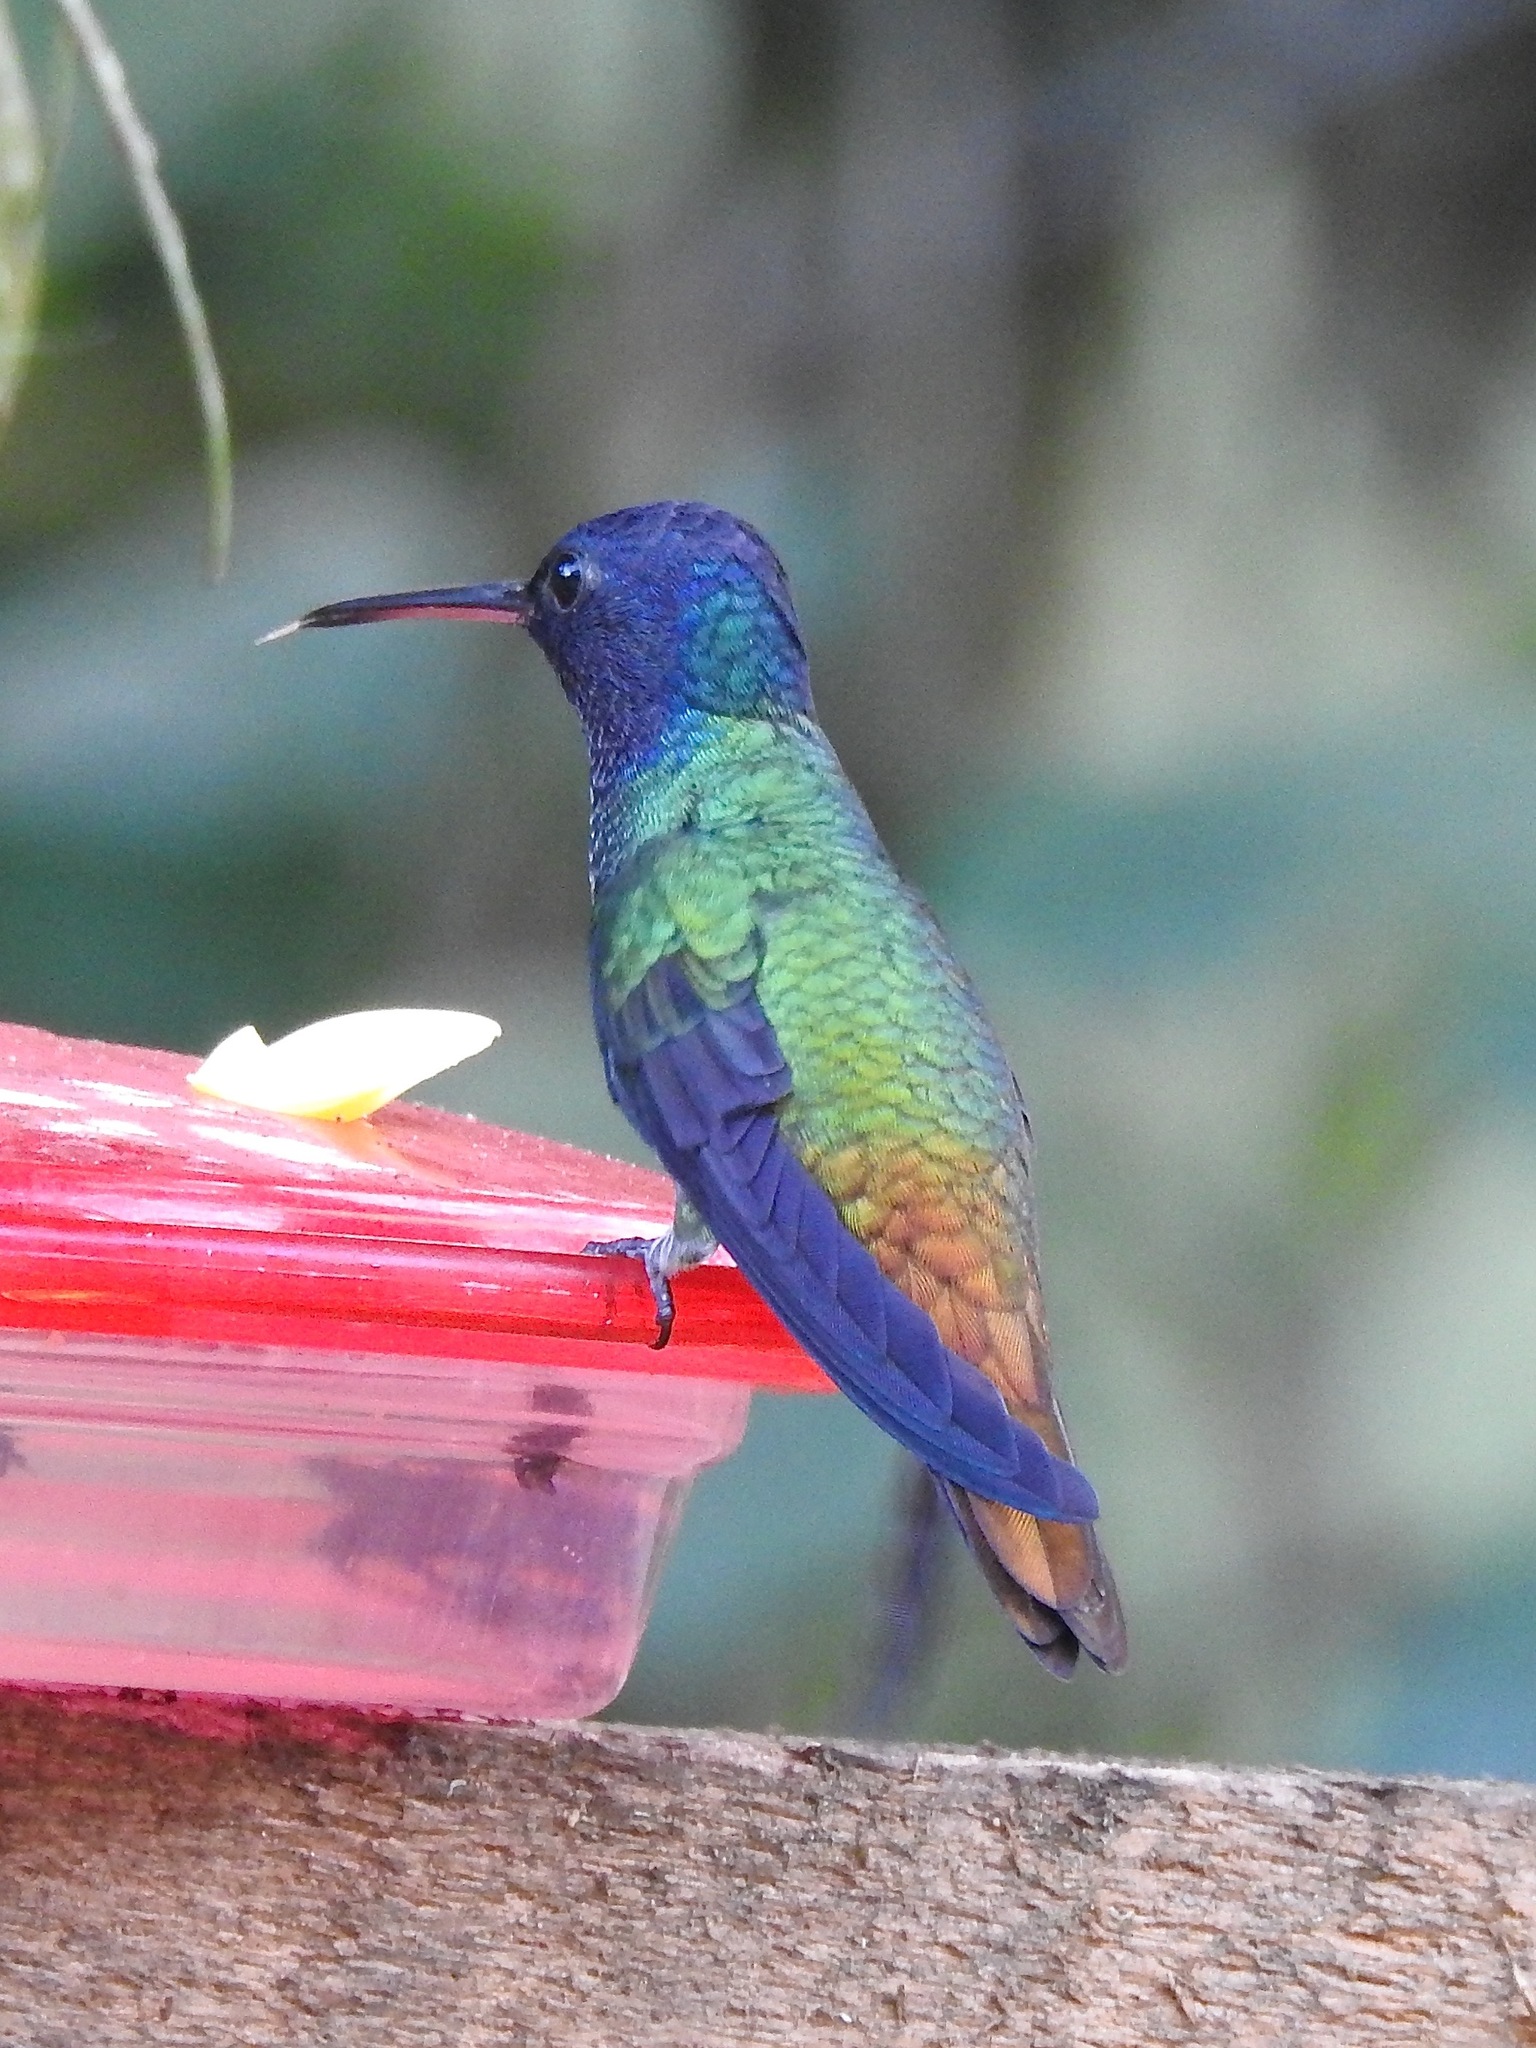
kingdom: Animalia
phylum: Chordata
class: Aves
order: Apodiformes
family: Trochilidae
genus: Chrysuronia
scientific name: Chrysuronia oenone
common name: Golden-tailed sapphire
